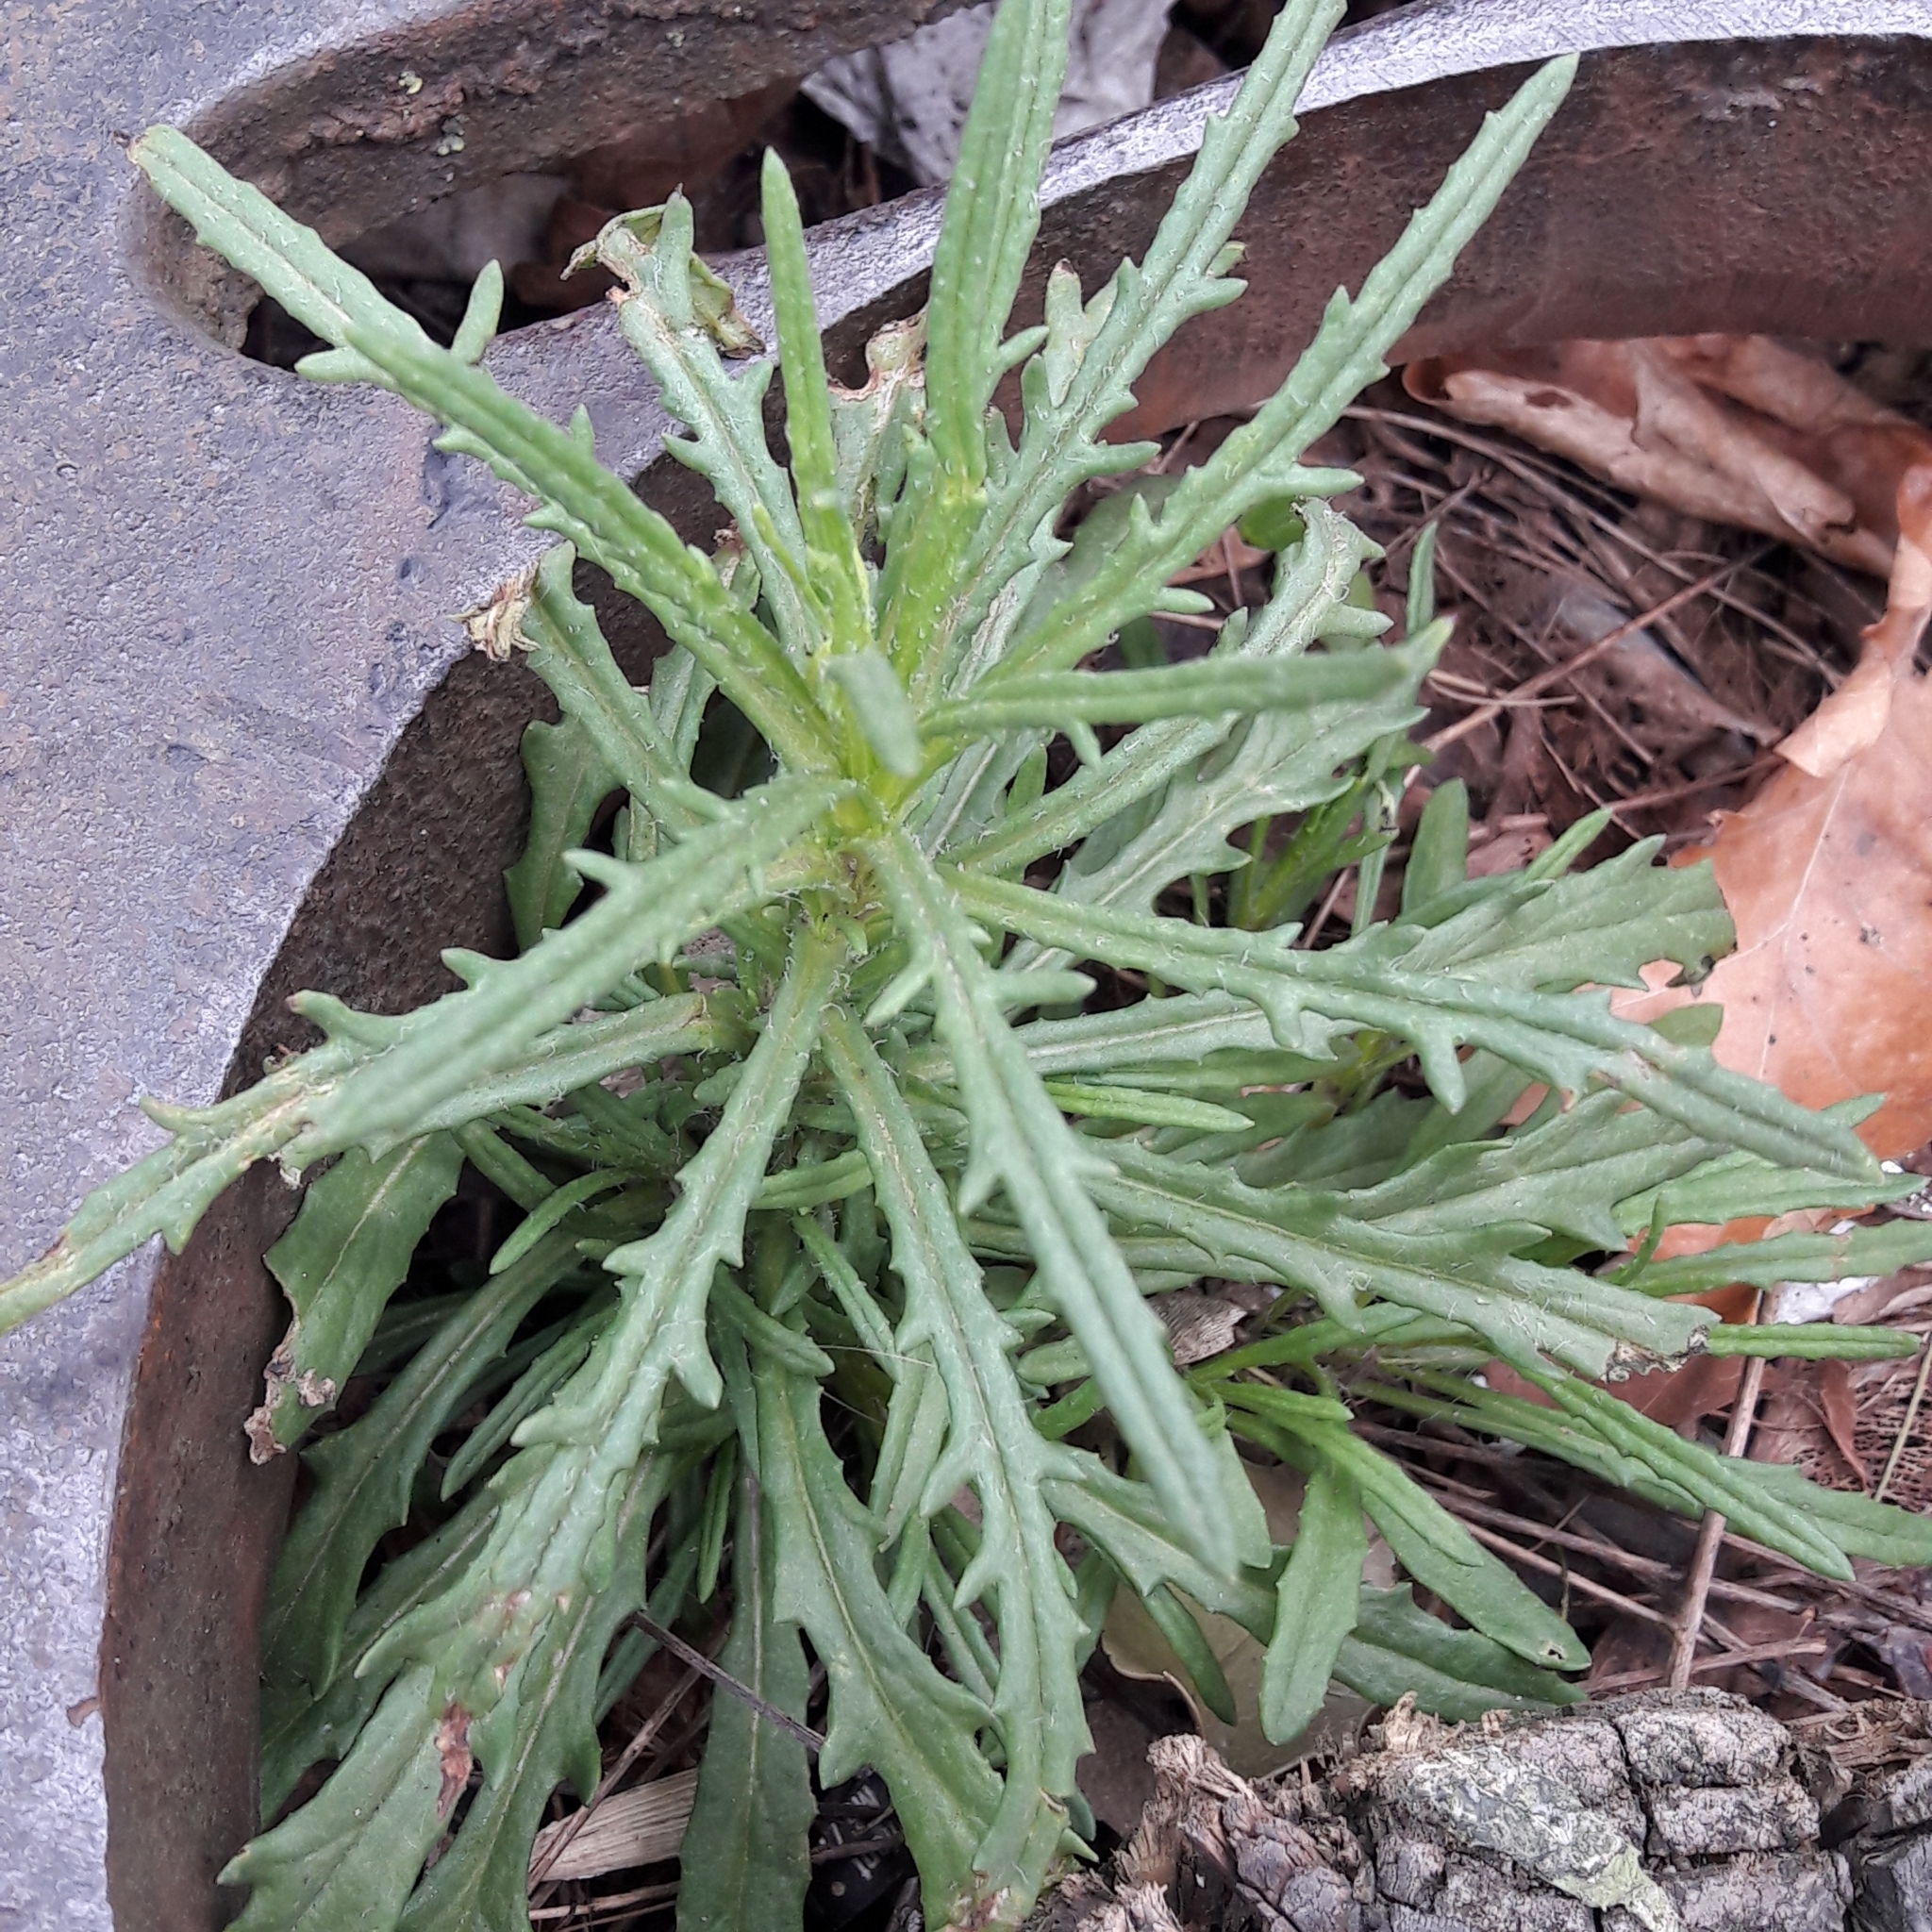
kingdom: Plantae
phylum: Tracheophyta
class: Magnoliopsida
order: Asterales
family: Asteraceae
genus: Senecio
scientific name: Senecio inaequidens
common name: Narrow-leaved ragwort
